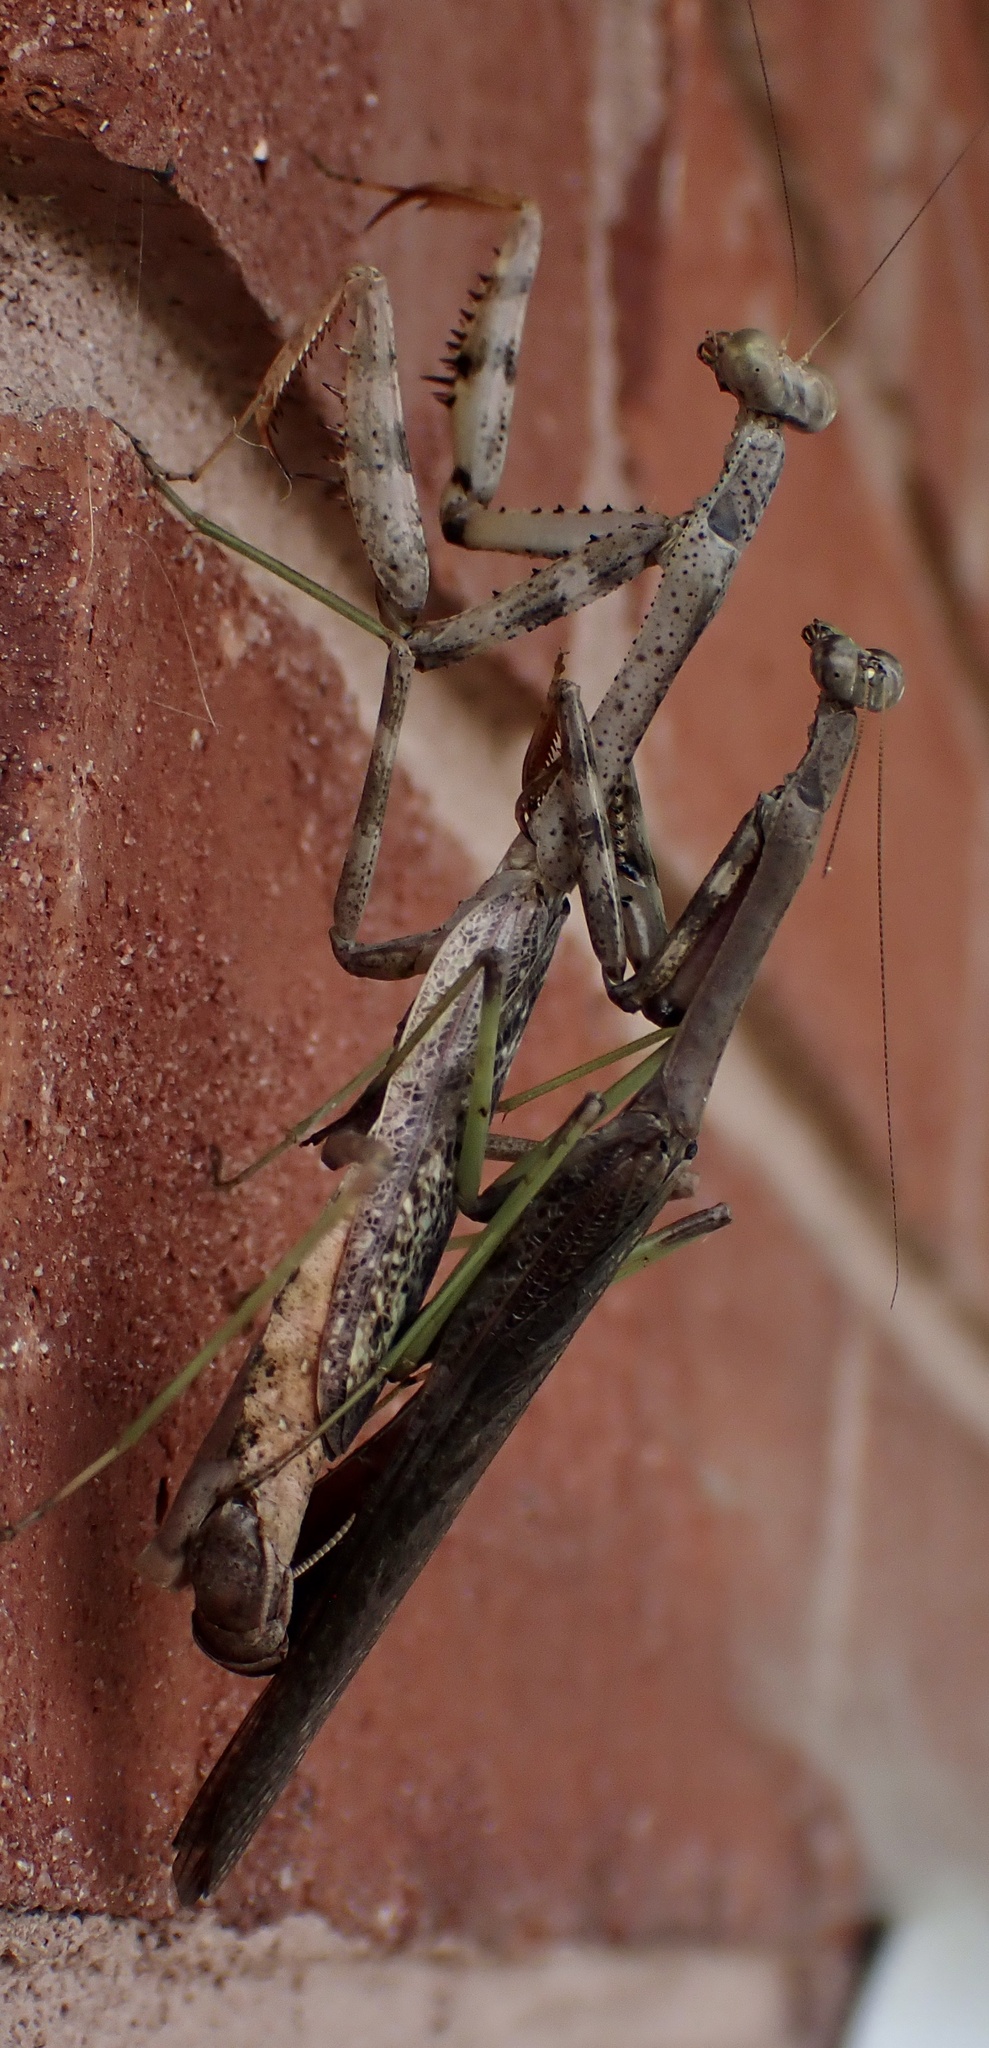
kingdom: Animalia
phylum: Arthropoda
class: Insecta
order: Mantodea
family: Mantidae
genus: Stagmomantis
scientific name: Stagmomantis carolina
